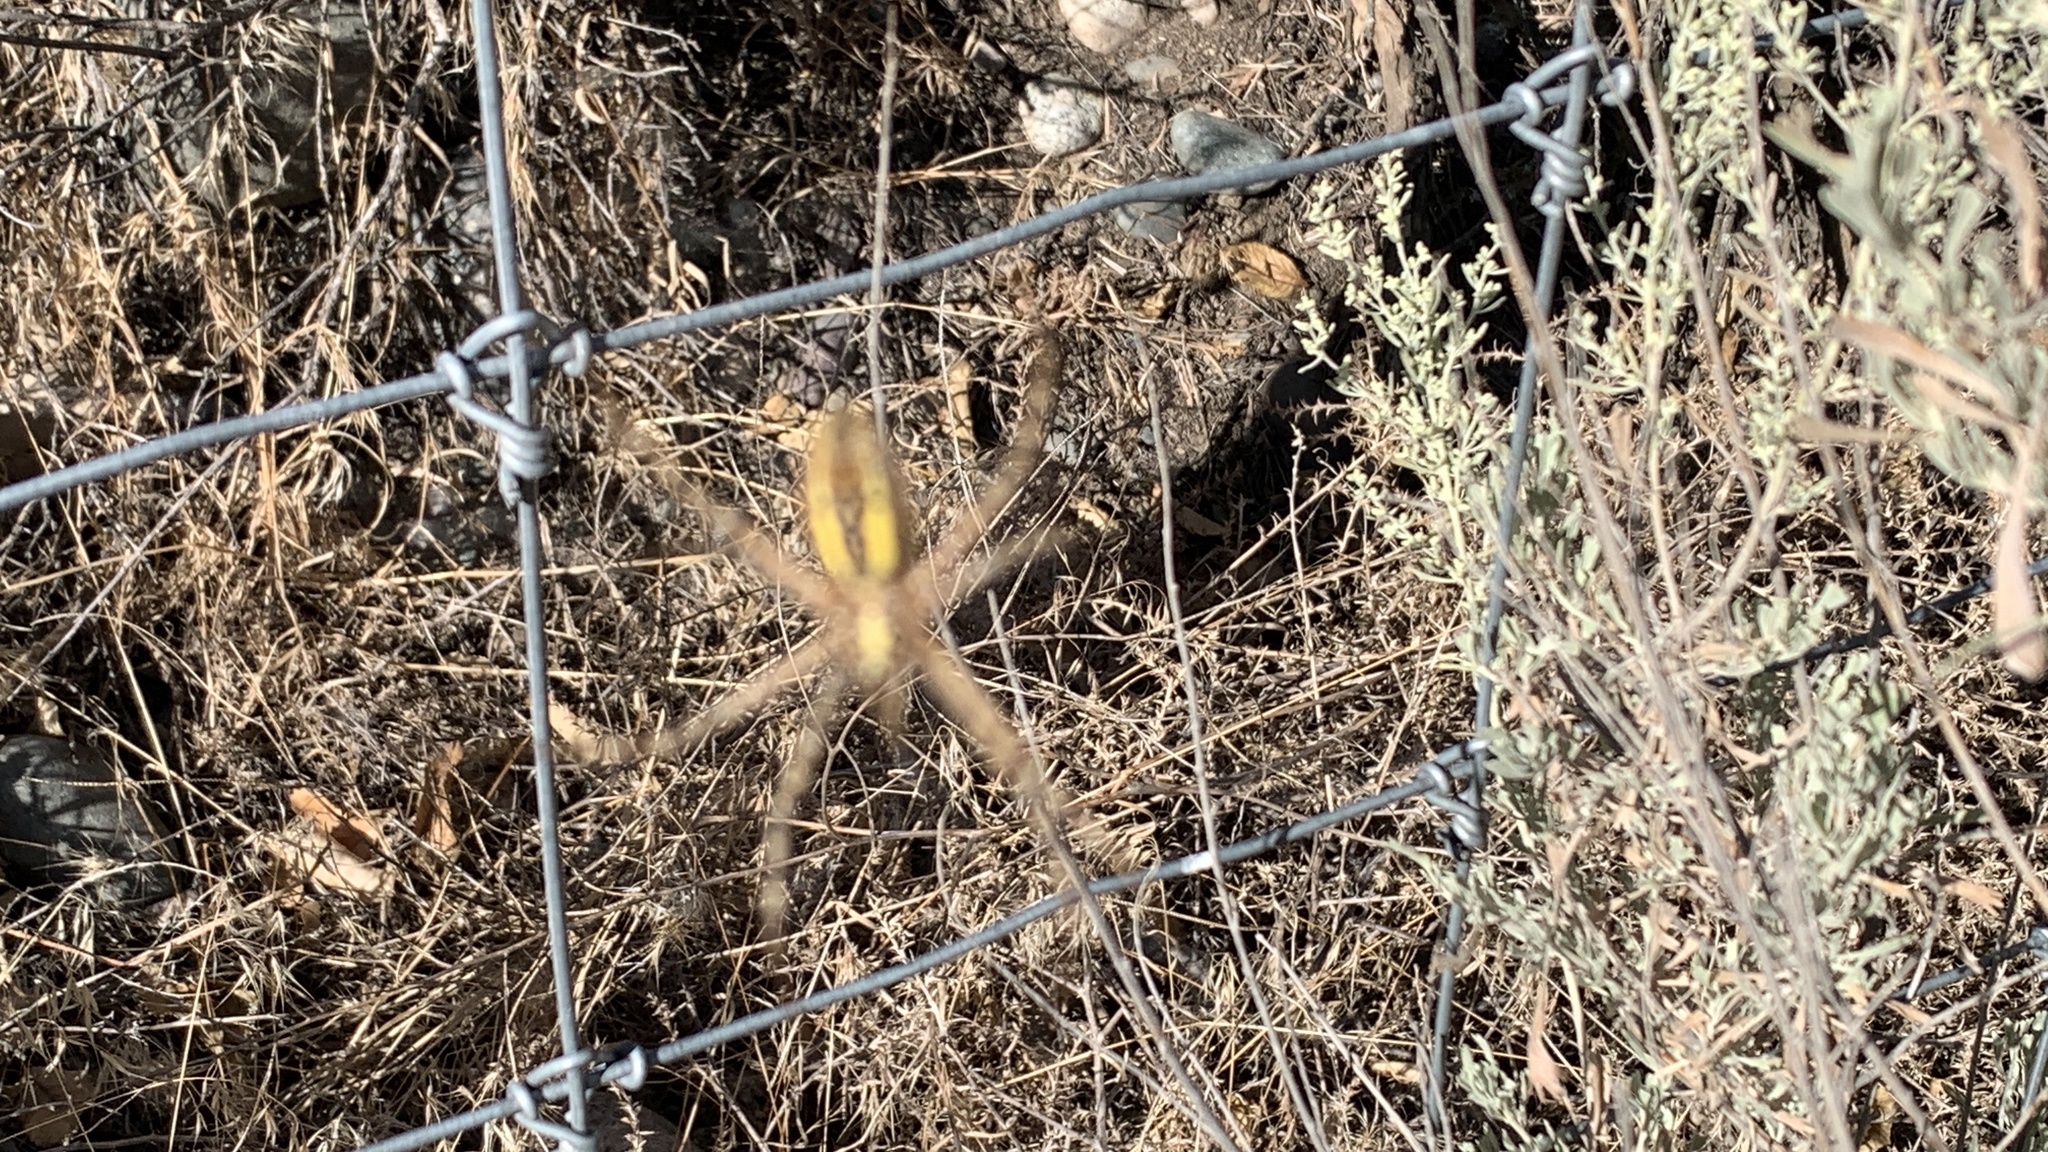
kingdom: Animalia
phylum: Arthropoda
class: Arachnida
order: Araneae
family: Araneidae
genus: Argiope
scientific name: Argiope trifasciata
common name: Banded garden spider
